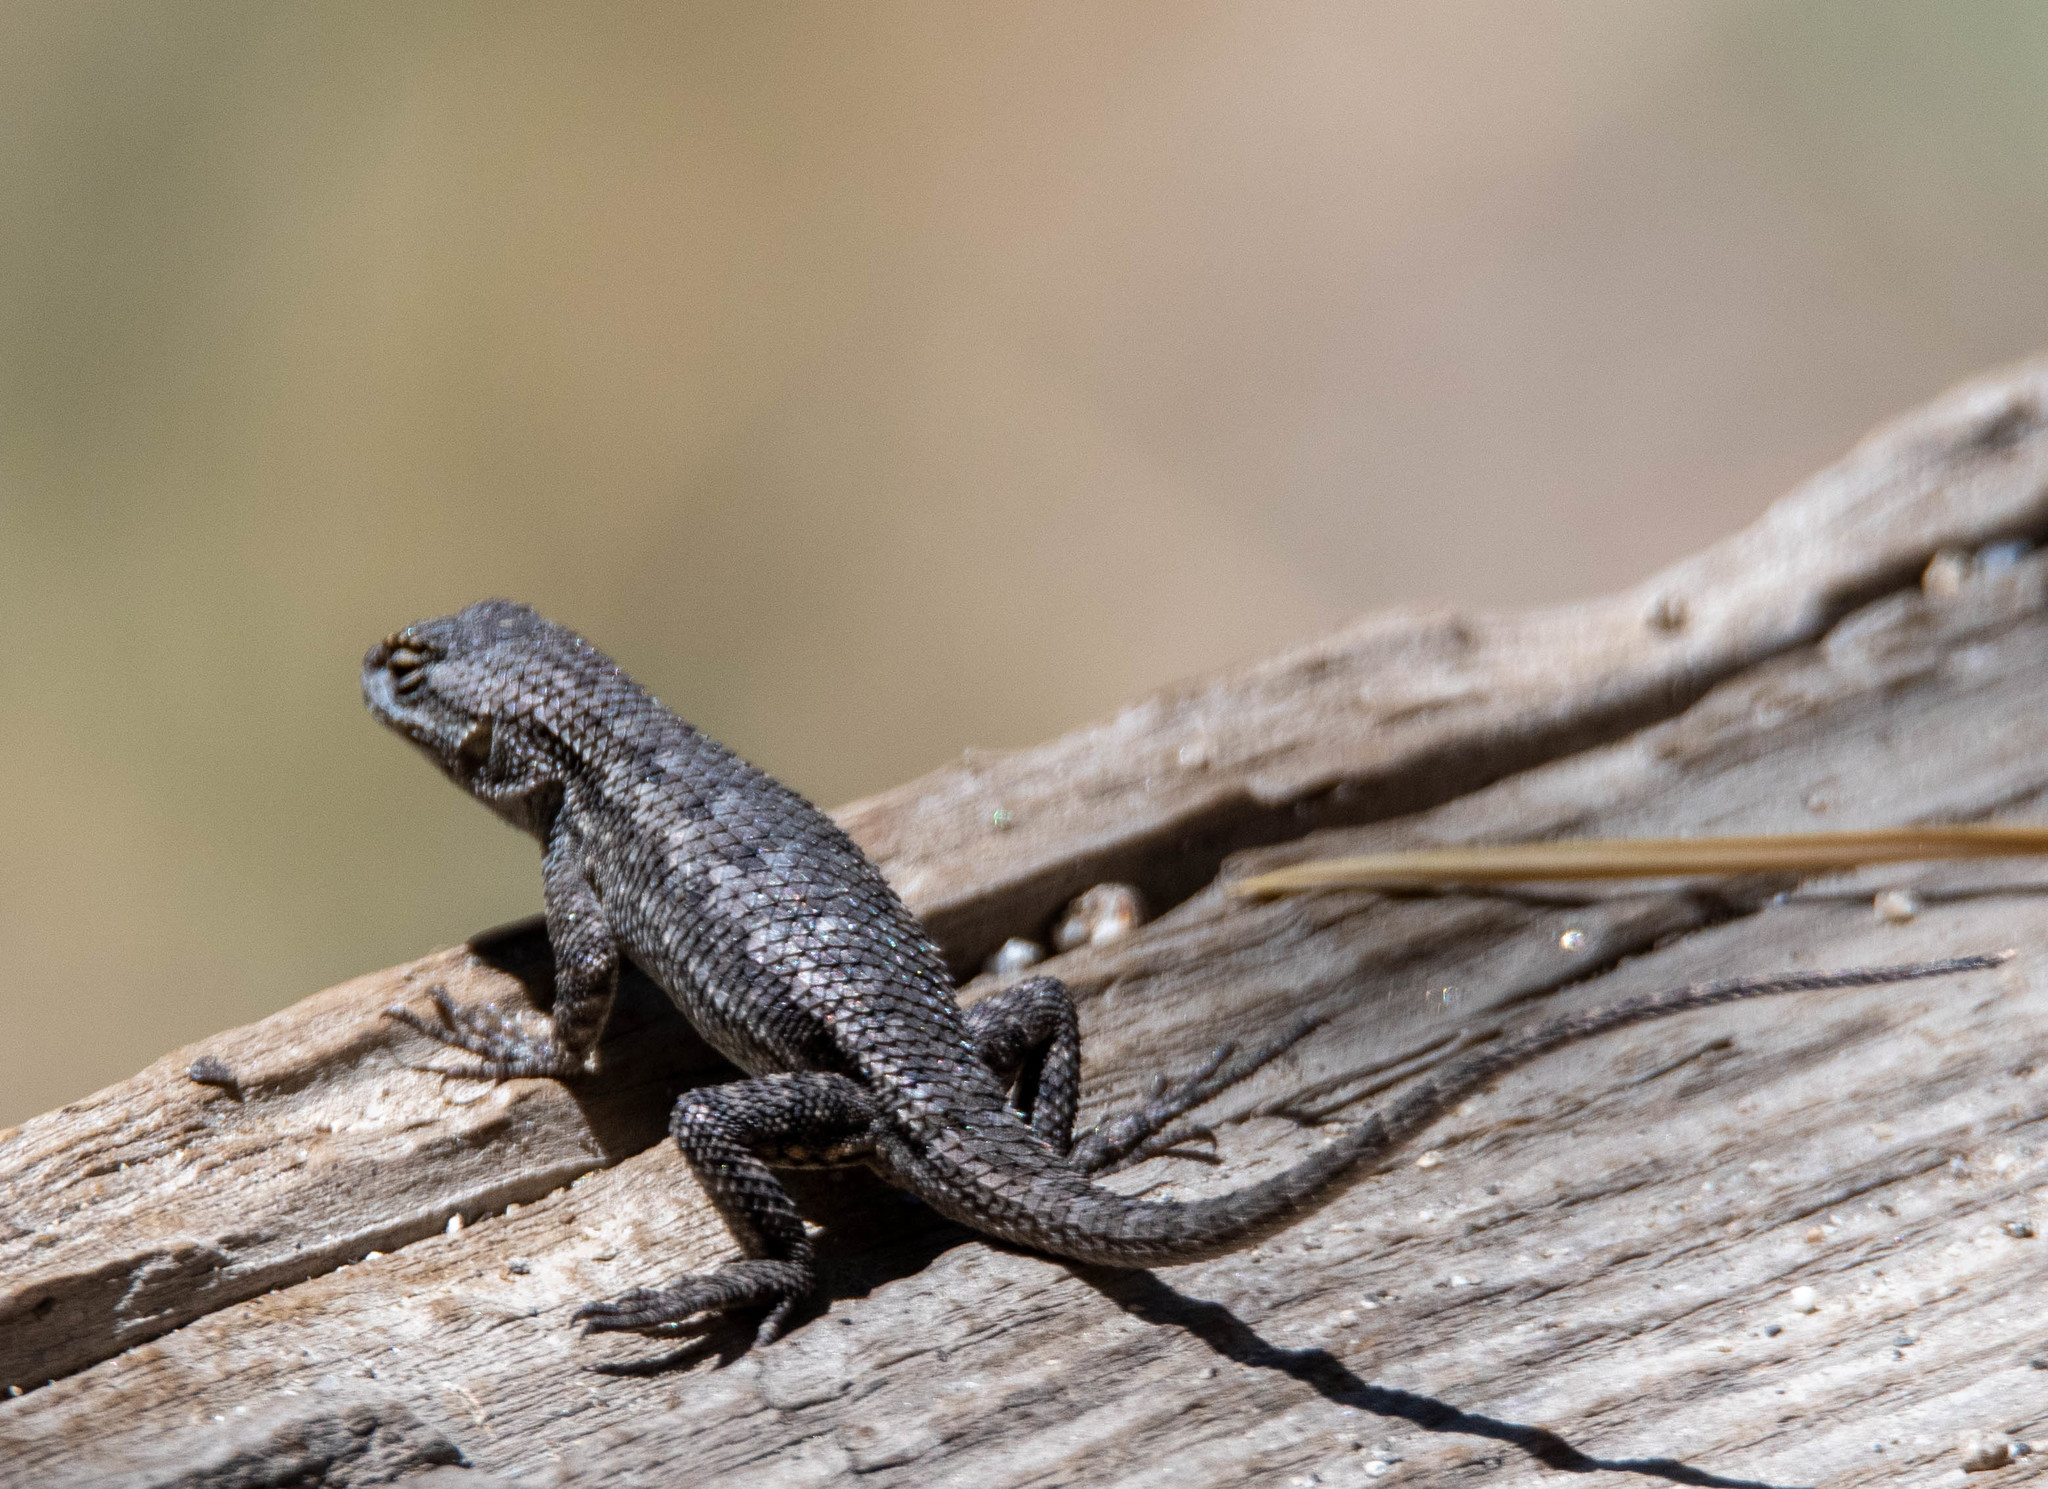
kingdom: Animalia
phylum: Chordata
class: Squamata
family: Phrynosomatidae
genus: Sceloporus
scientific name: Sceloporus occidentalis
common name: Western fence lizard
